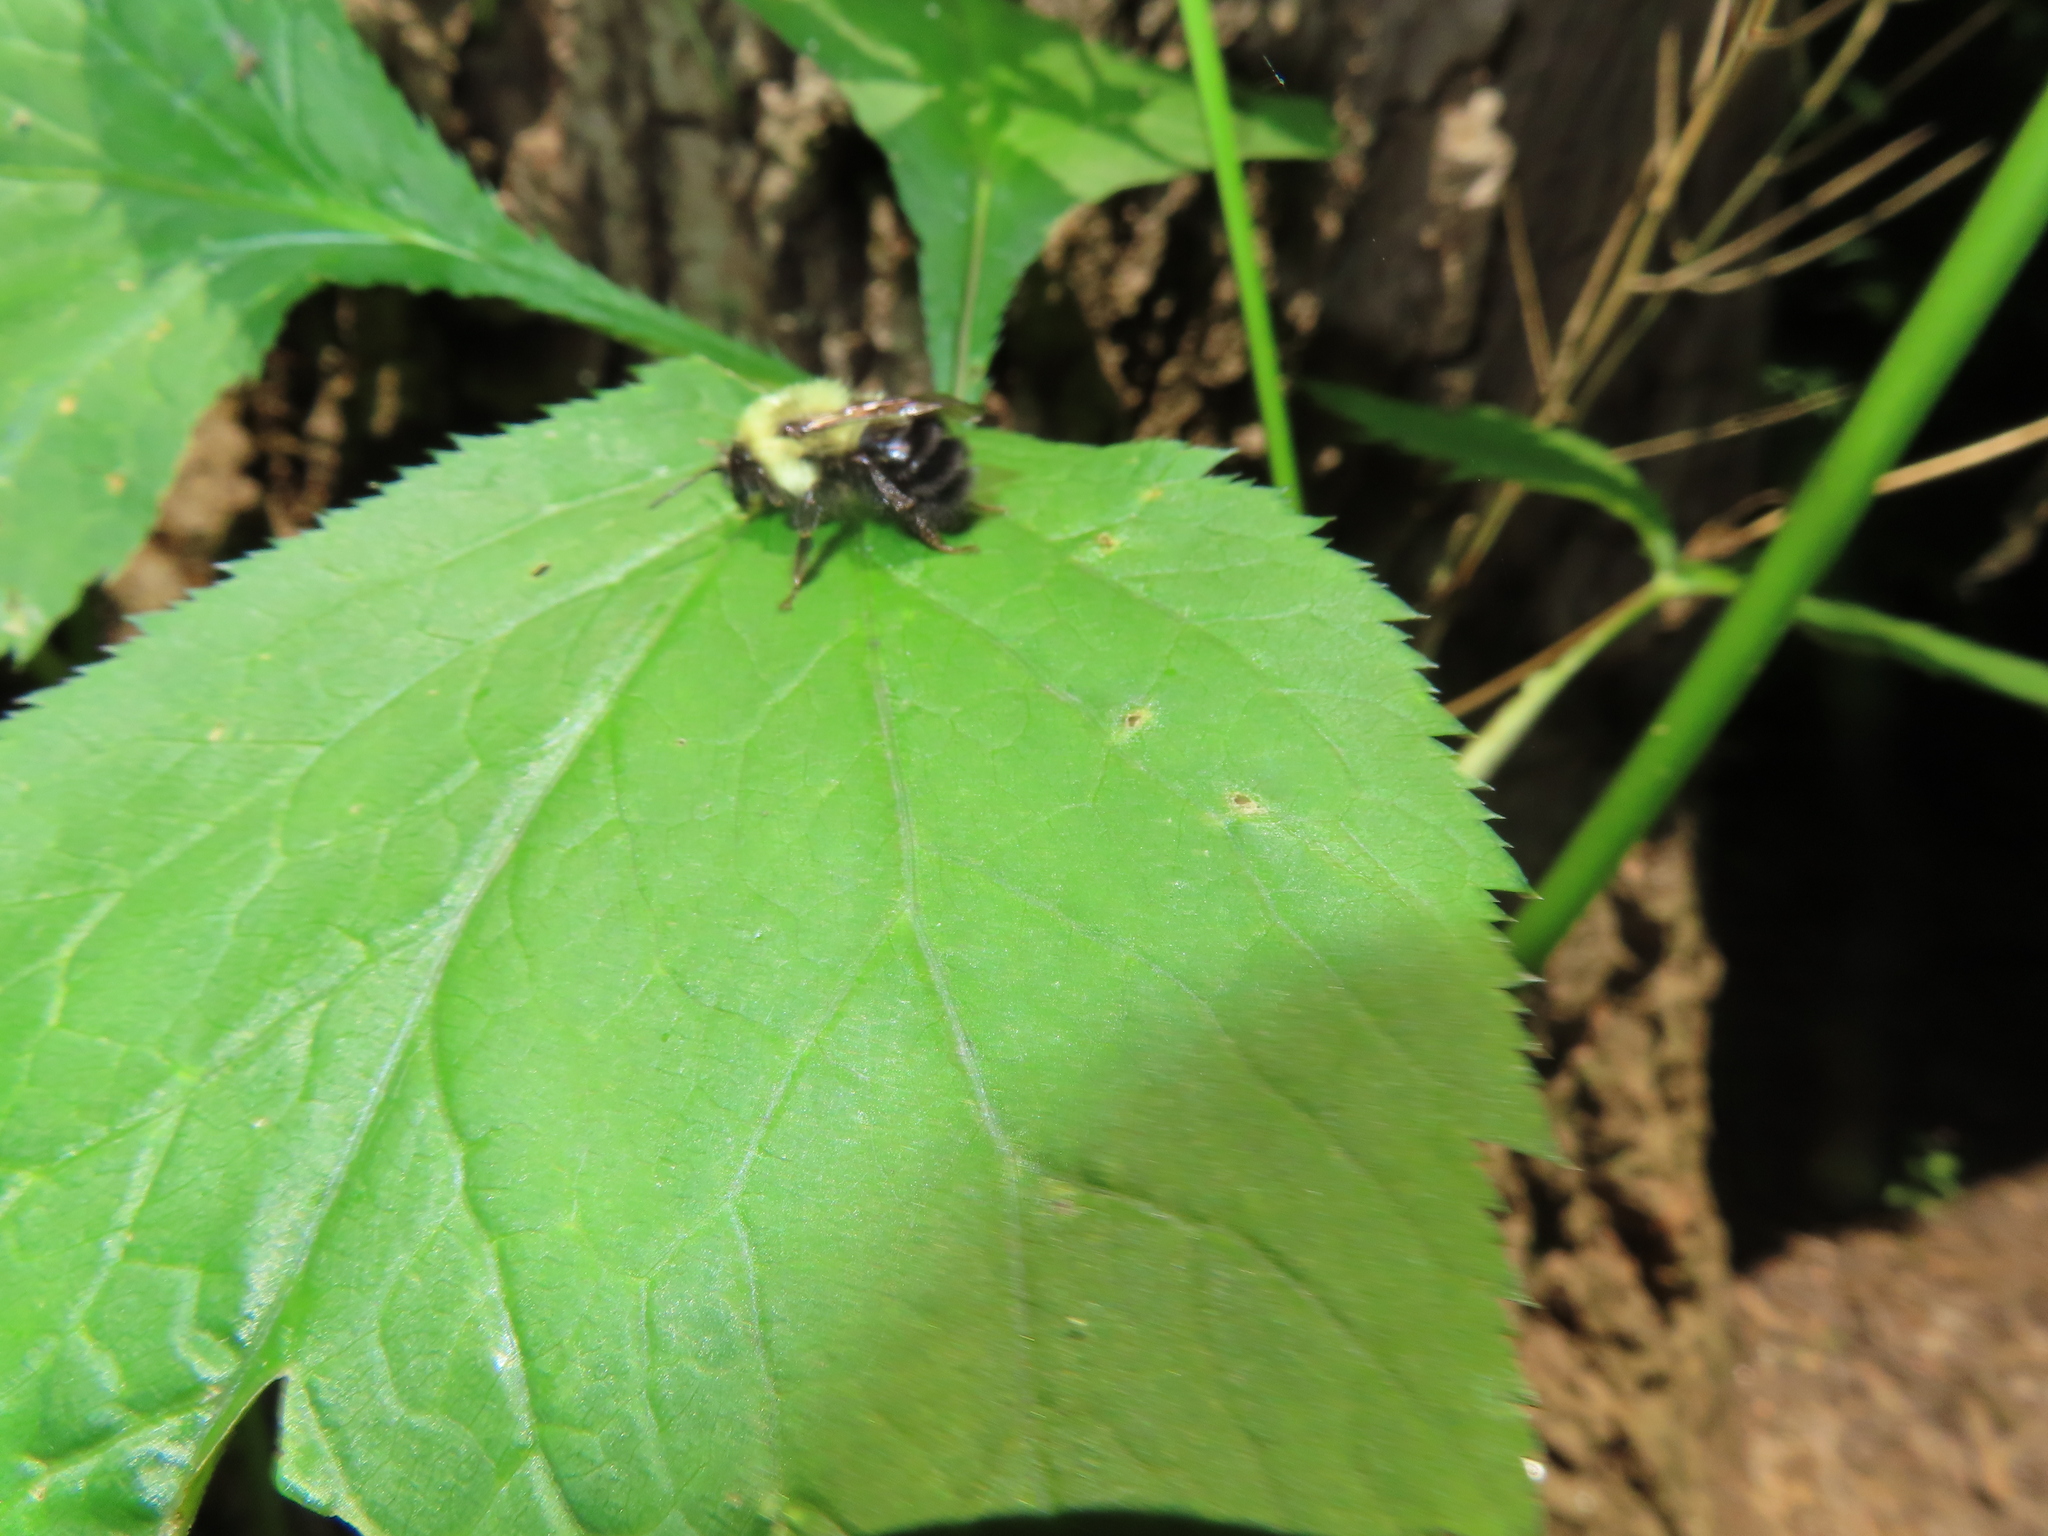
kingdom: Animalia
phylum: Arthropoda
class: Insecta
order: Hymenoptera
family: Apidae
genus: Bombus
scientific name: Bombus bimaculatus
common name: Two-spotted bumble bee
